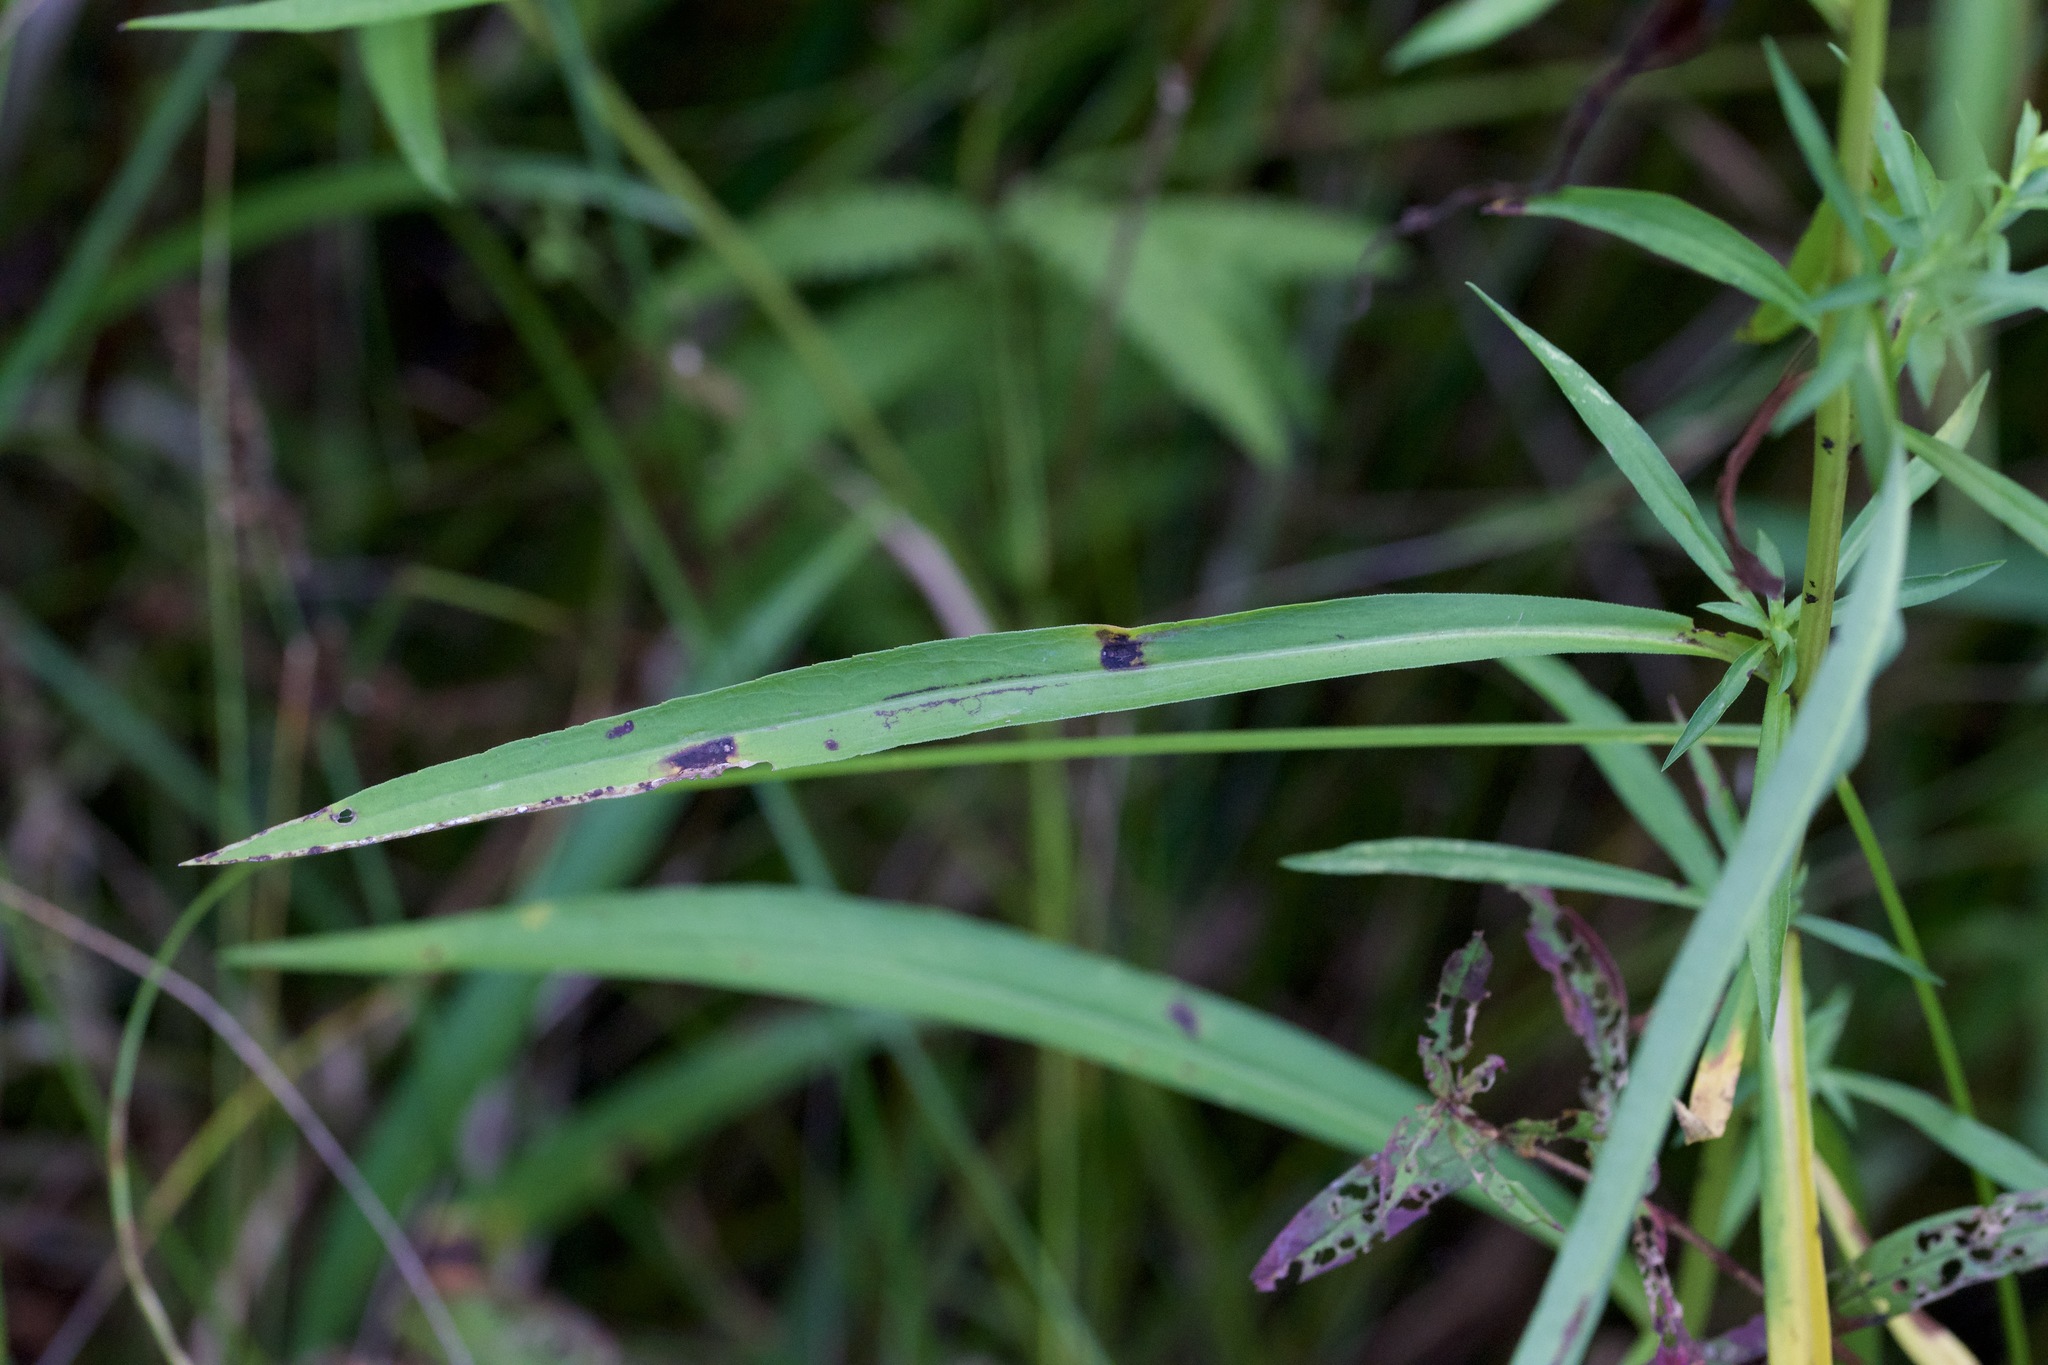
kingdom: Plantae
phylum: Tracheophyta
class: Magnoliopsida
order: Asterales
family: Asteraceae
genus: Symphyotrichum
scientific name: Symphyotrichum lanceolatum
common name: Panicled aster
